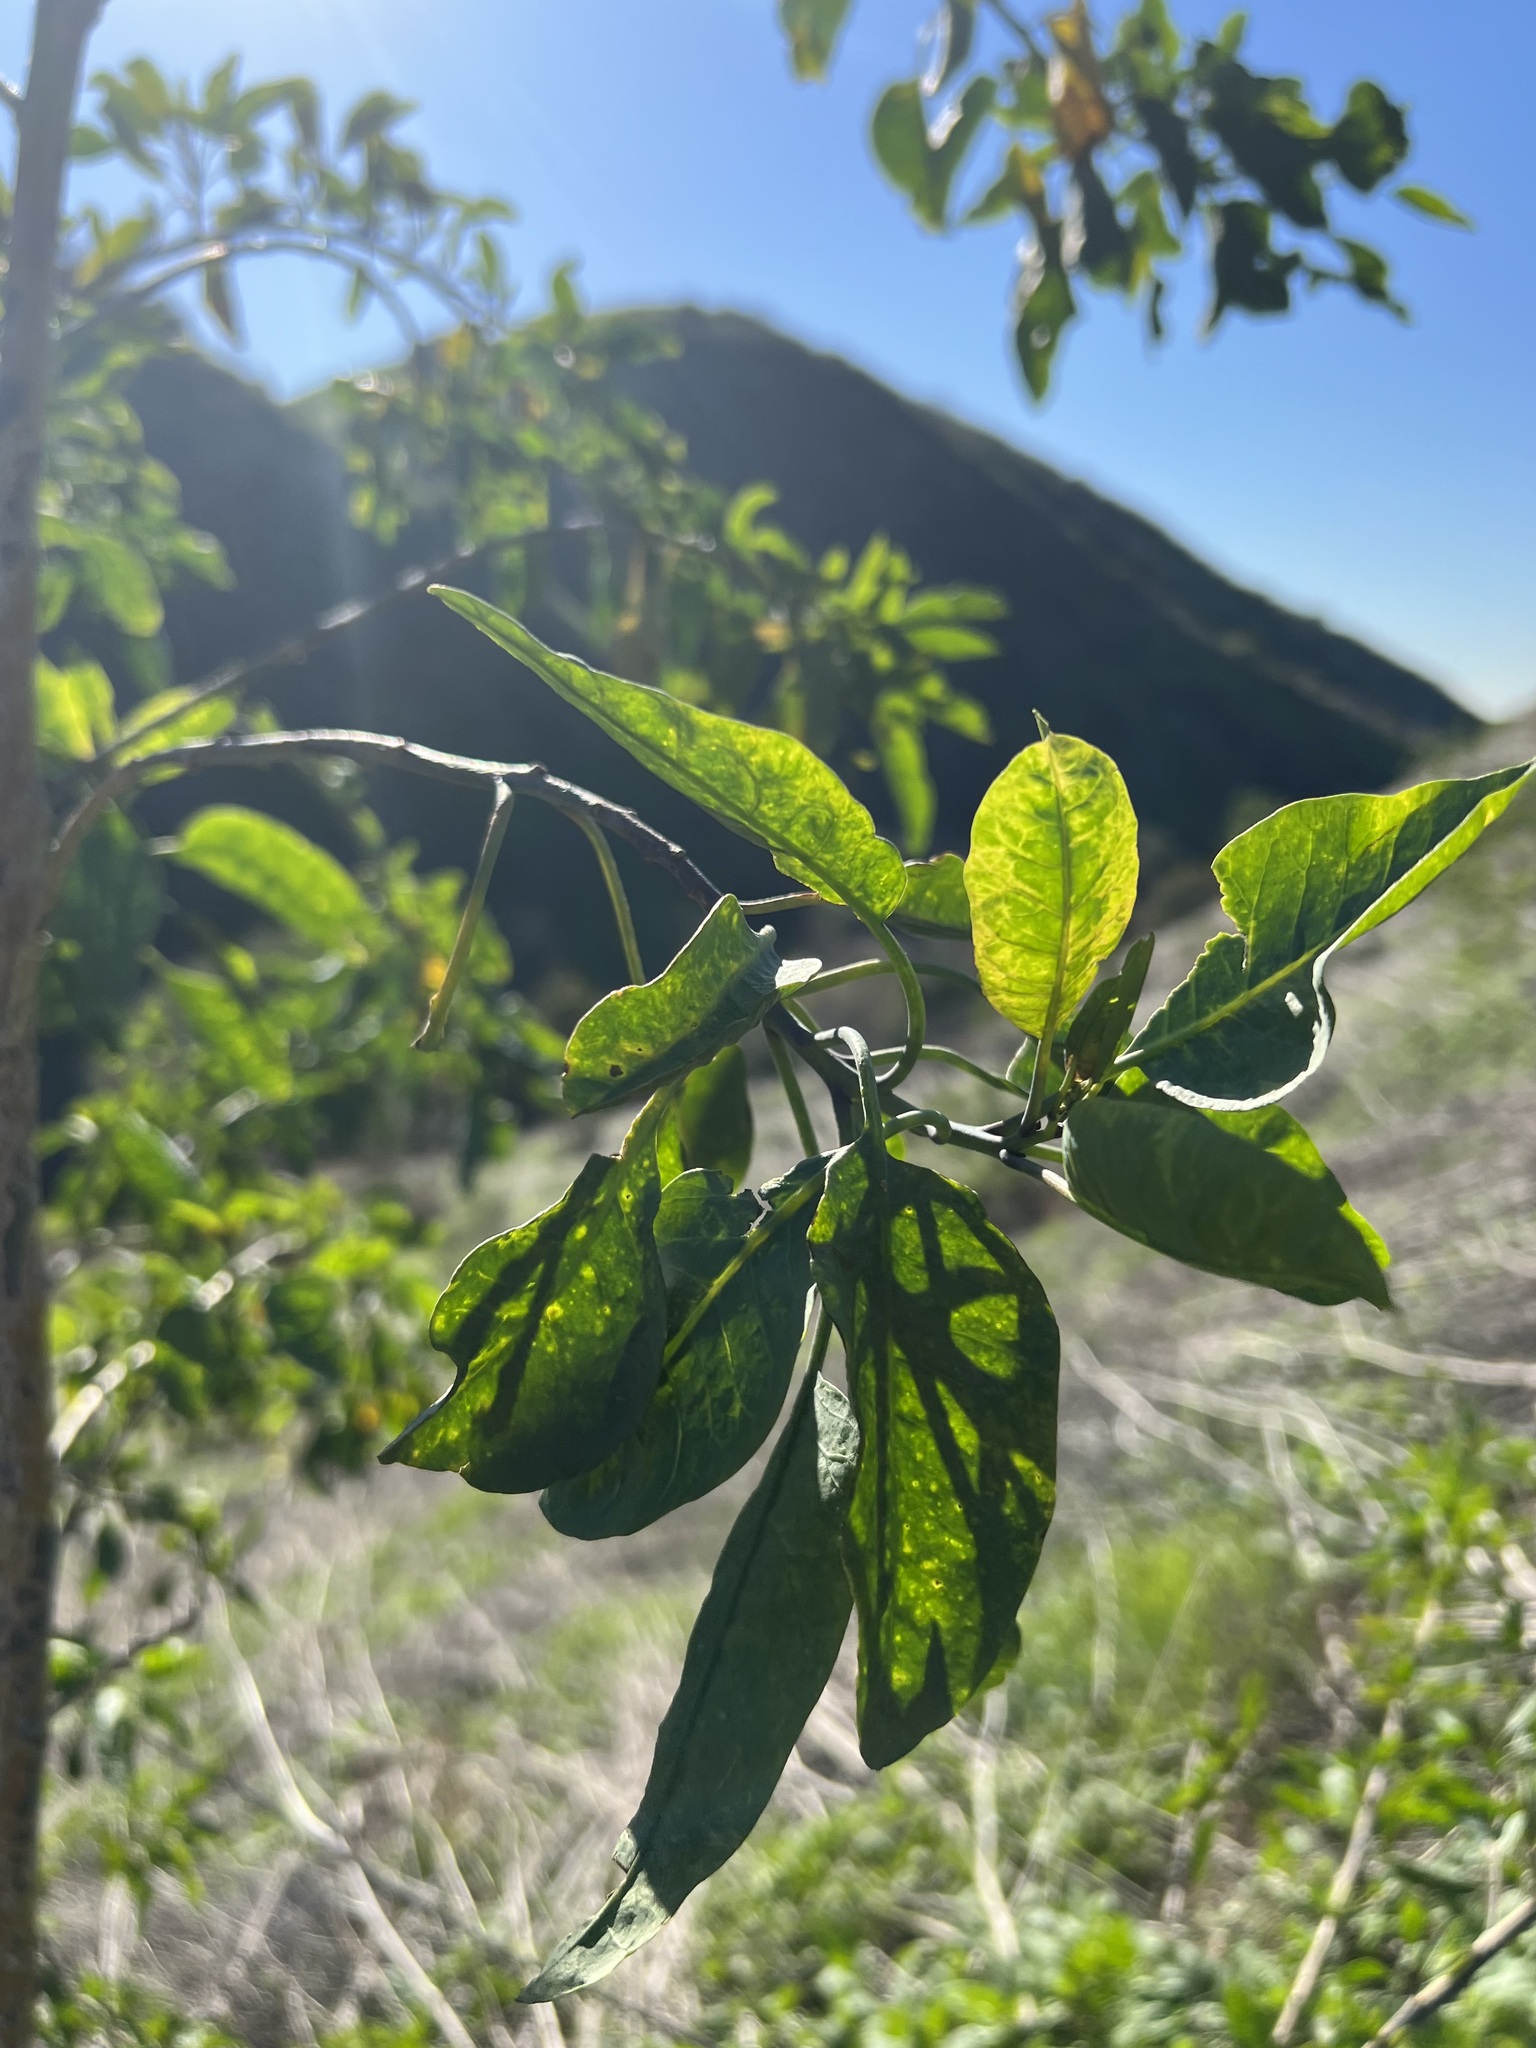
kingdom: Plantae
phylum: Tracheophyta
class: Magnoliopsida
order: Solanales
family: Solanaceae
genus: Nicotiana
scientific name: Nicotiana glauca
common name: Tree tobacco
